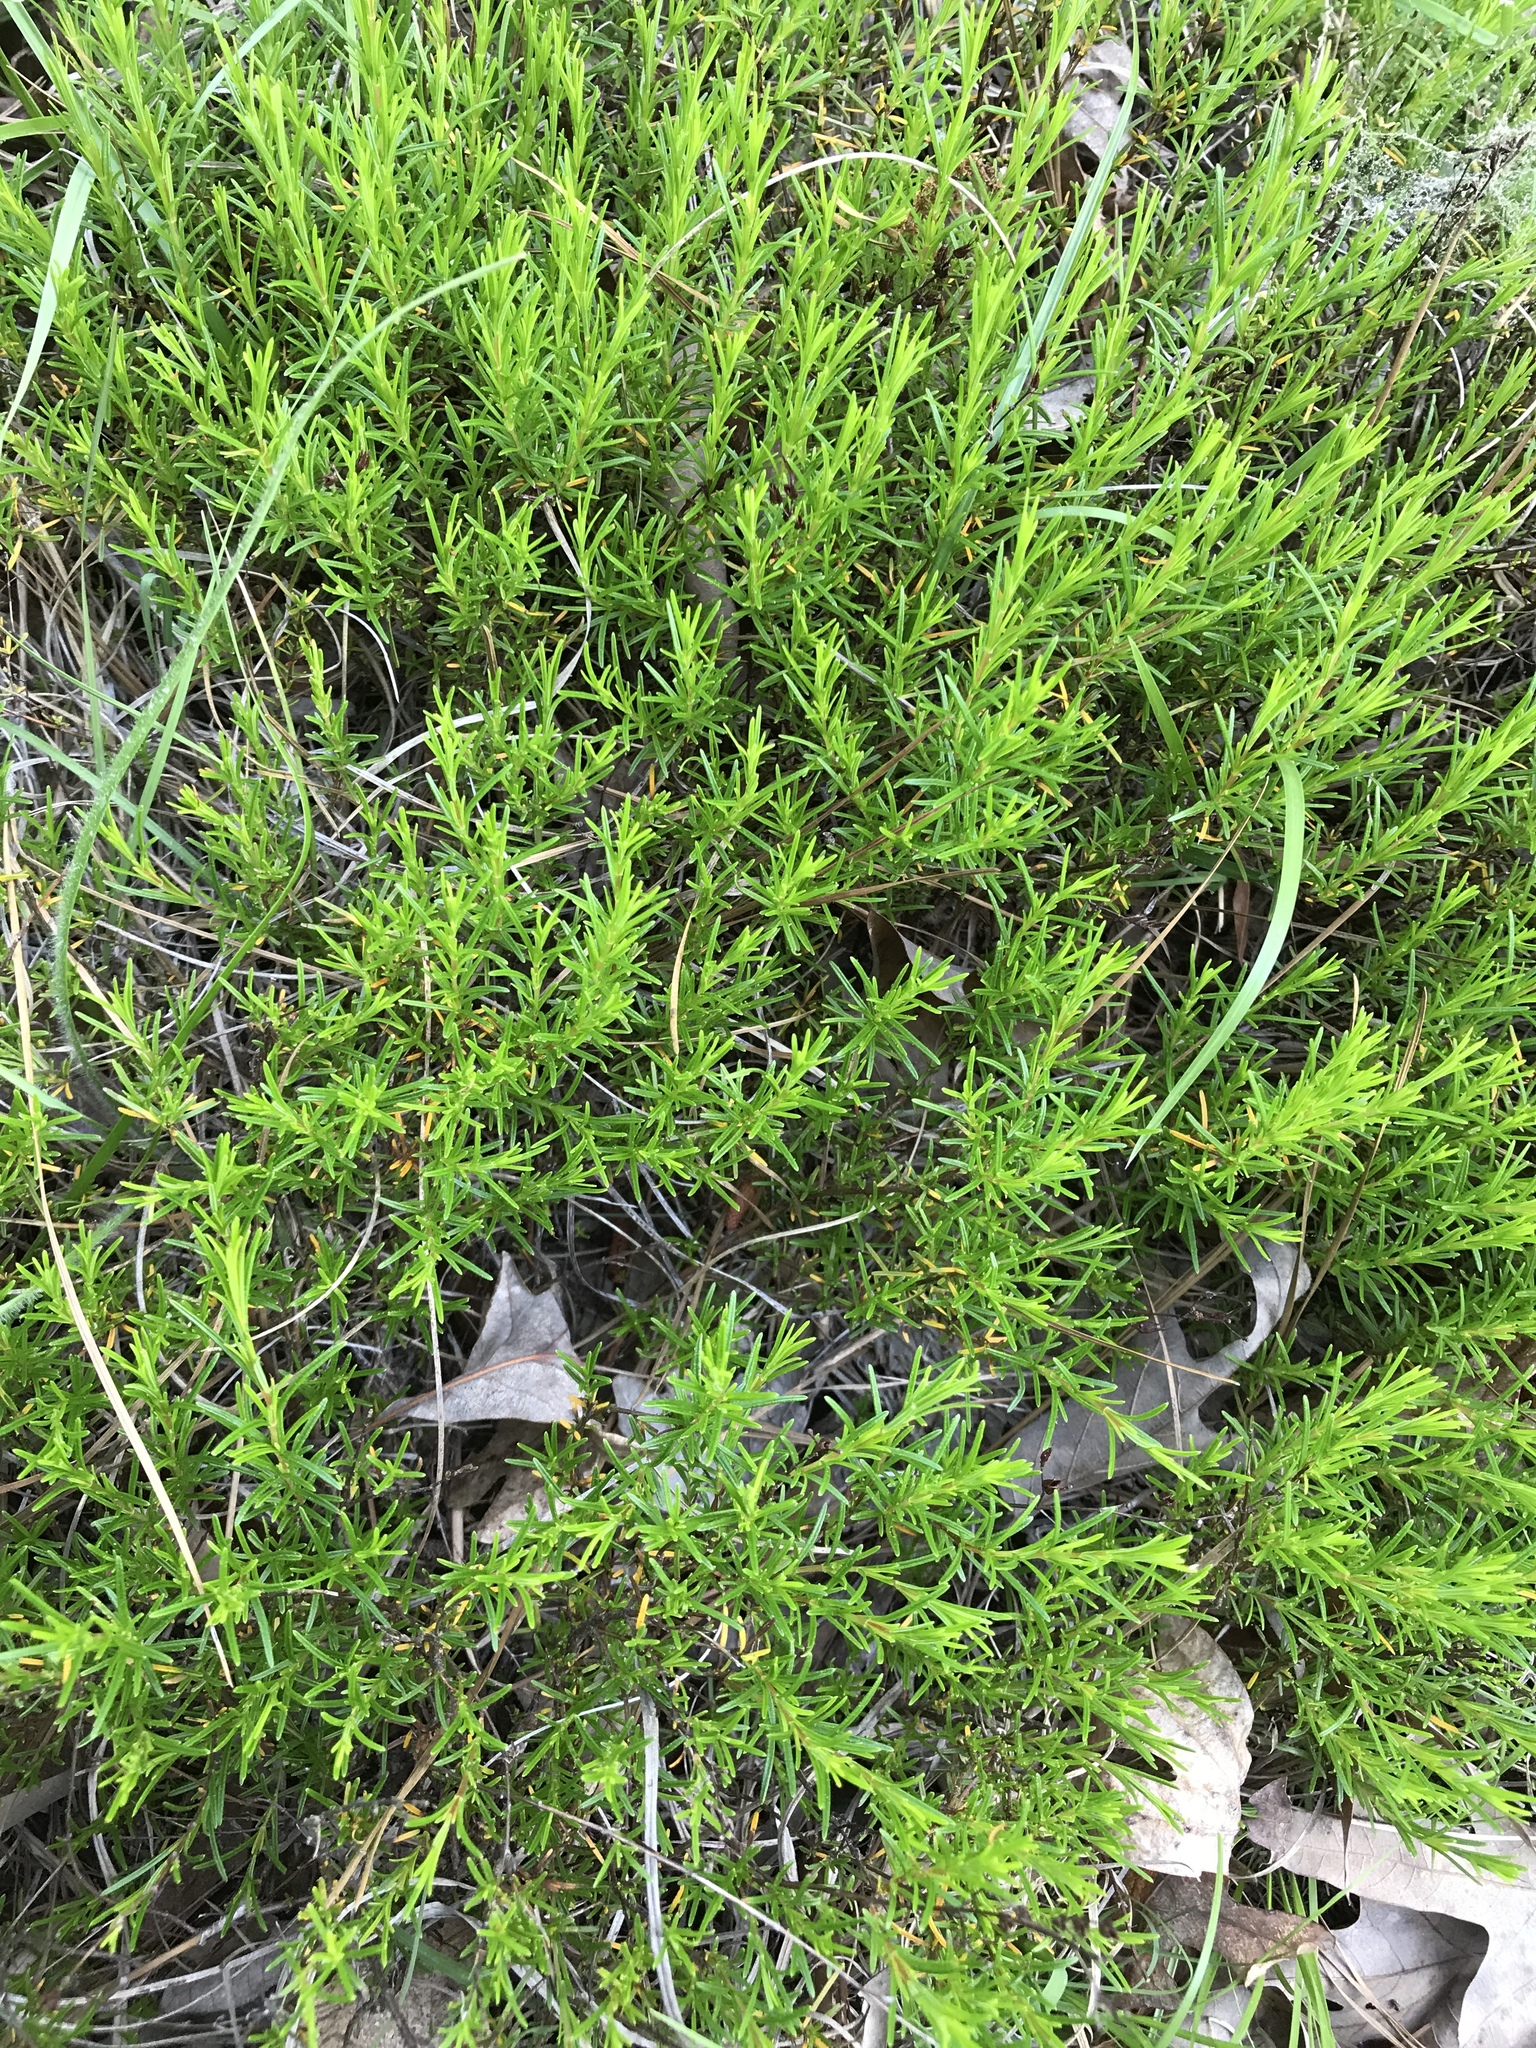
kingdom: Plantae
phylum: Tracheophyta
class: Magnoliopsida
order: Malpighiales
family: Hypericaceae
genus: Hypericum
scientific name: Hypericum lloydii
